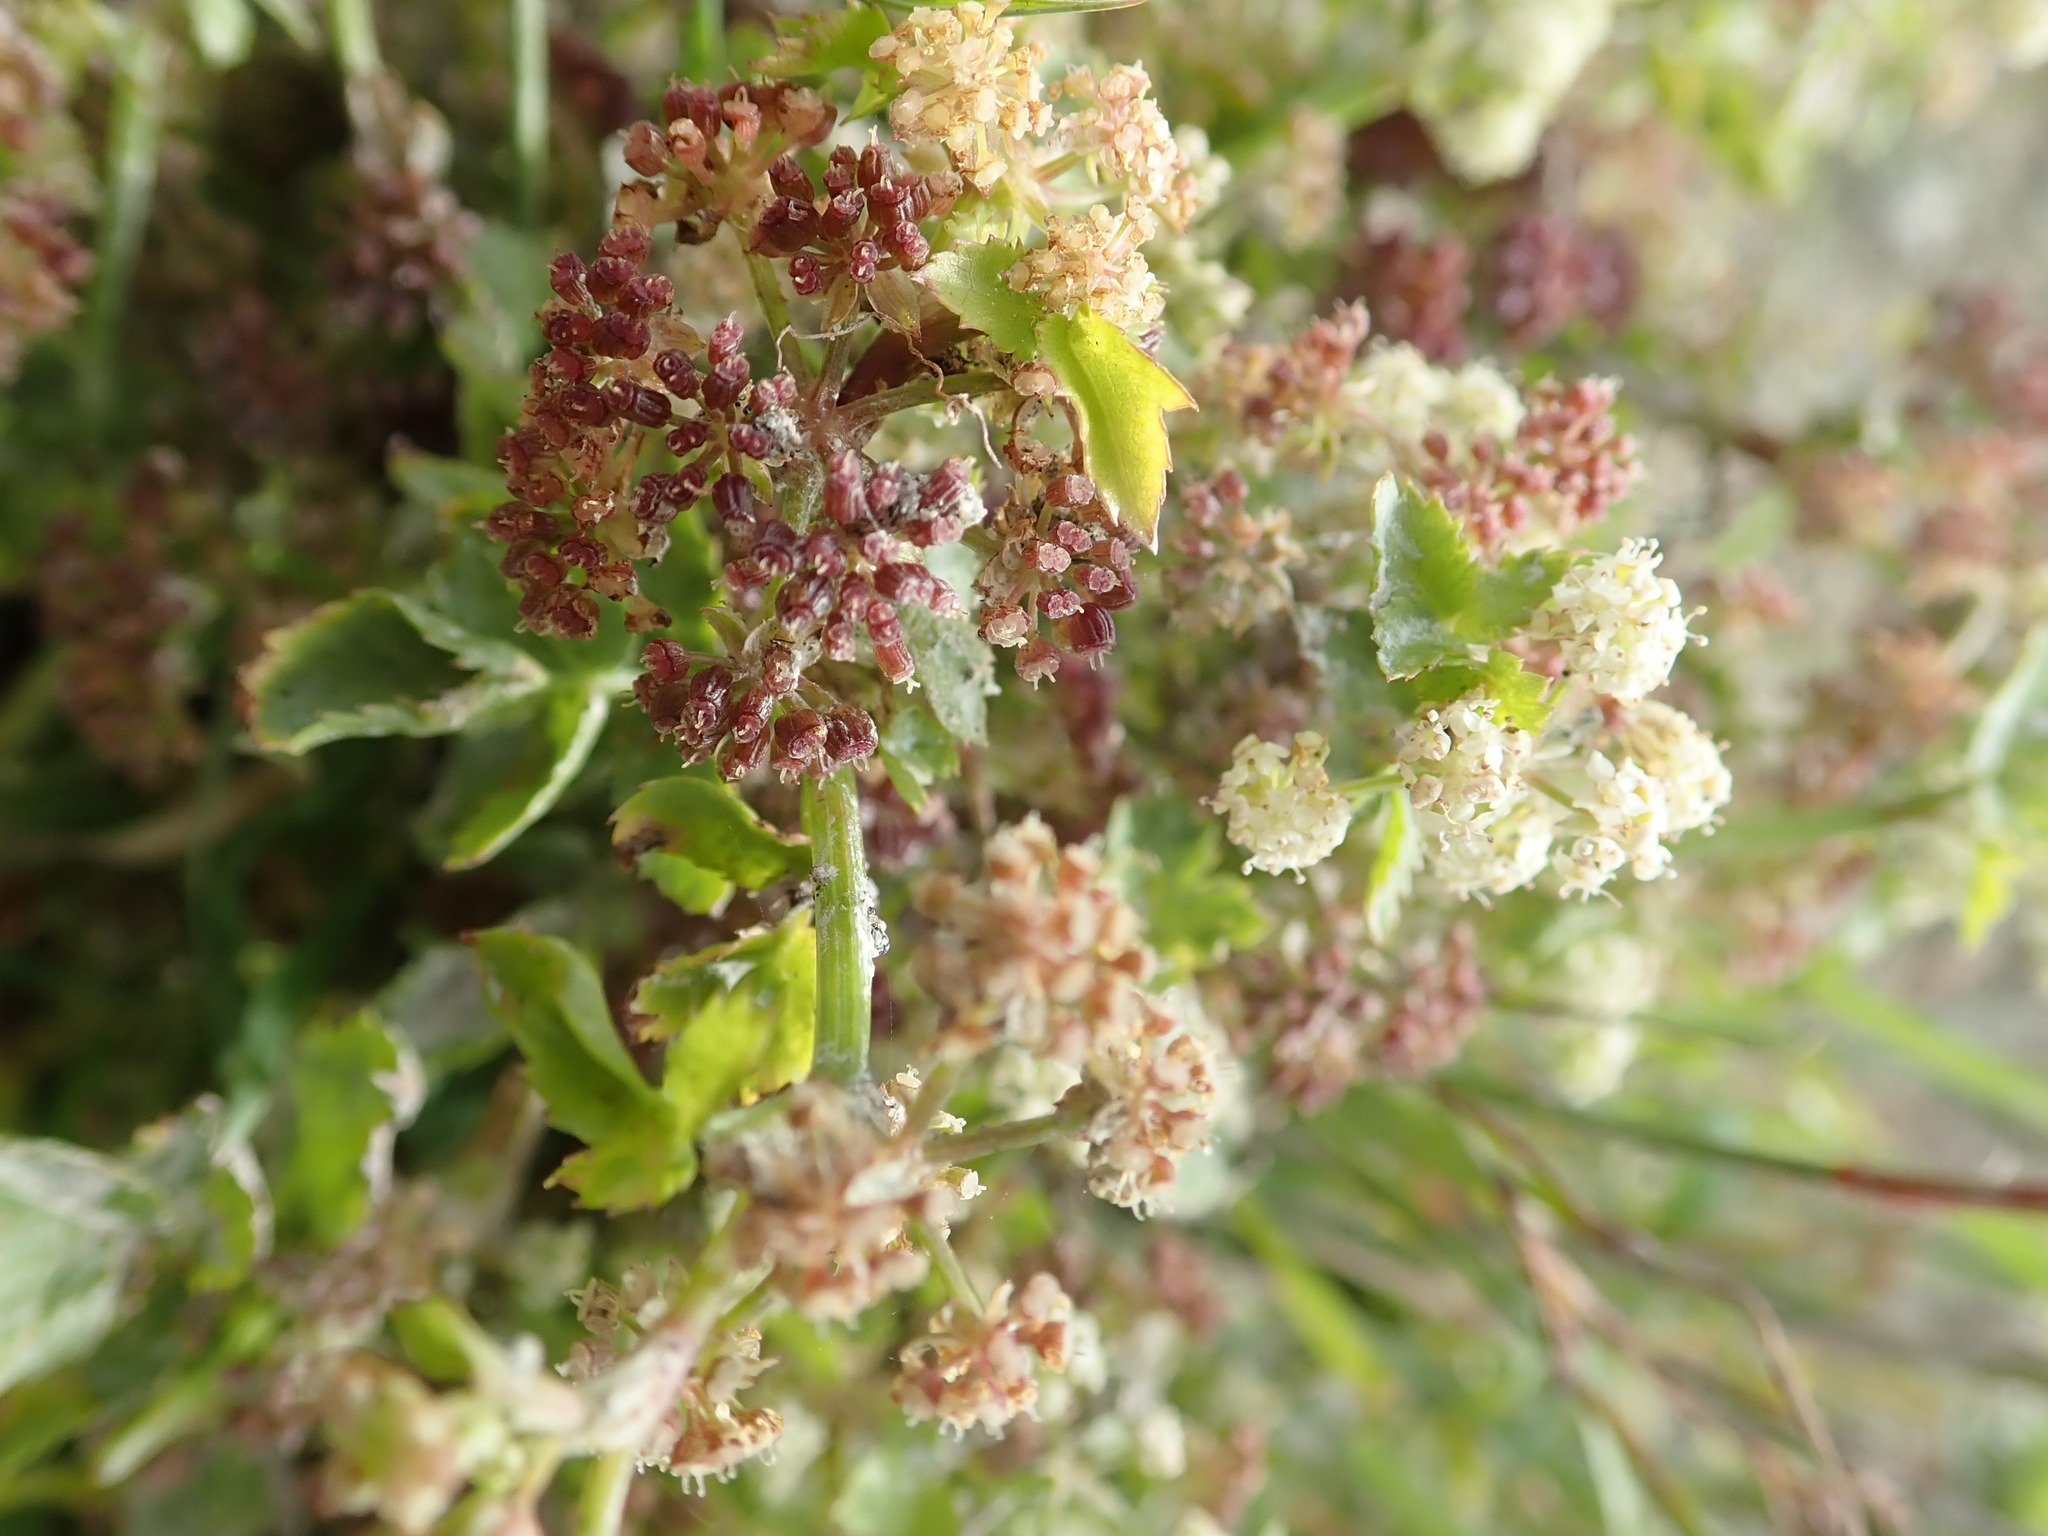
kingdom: Plantae
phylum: Tracheophyta
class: Magnoliopsida
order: Apiales
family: Apiaceae
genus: Helosciadium
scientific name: Helosciadium nodiflorum
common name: Fool's-watercress
